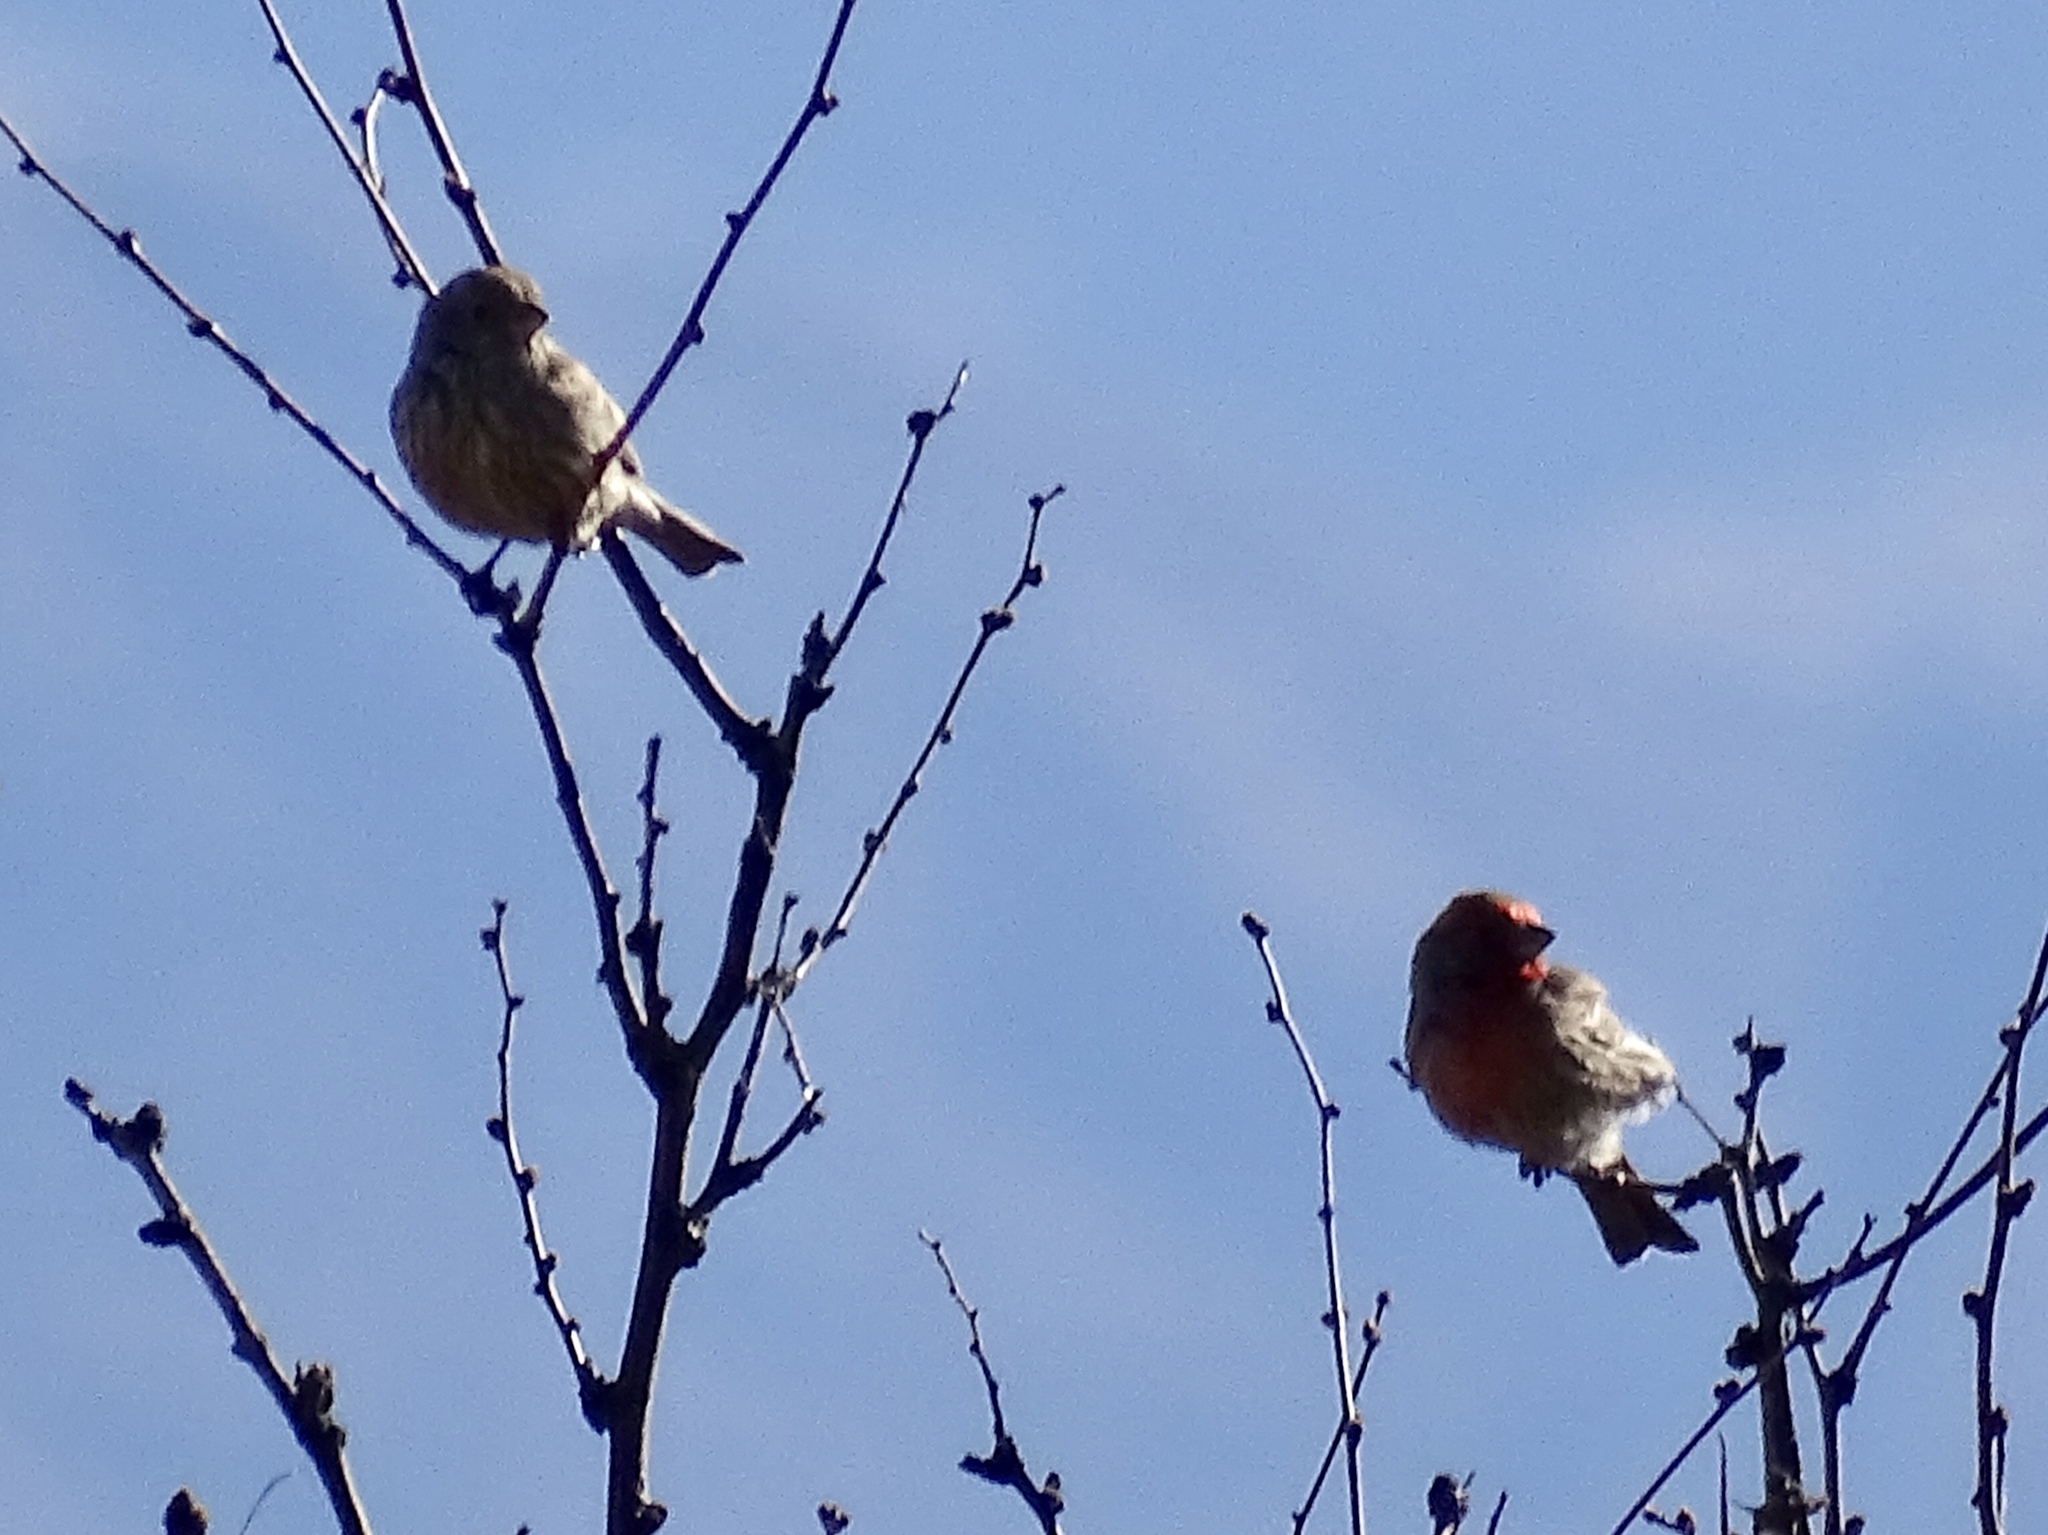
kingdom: Animalia
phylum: Chordata
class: Aves
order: Passeriformes
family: Fringillidae
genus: Haemorhous
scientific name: Haemorhous mexicanus
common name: House finch
